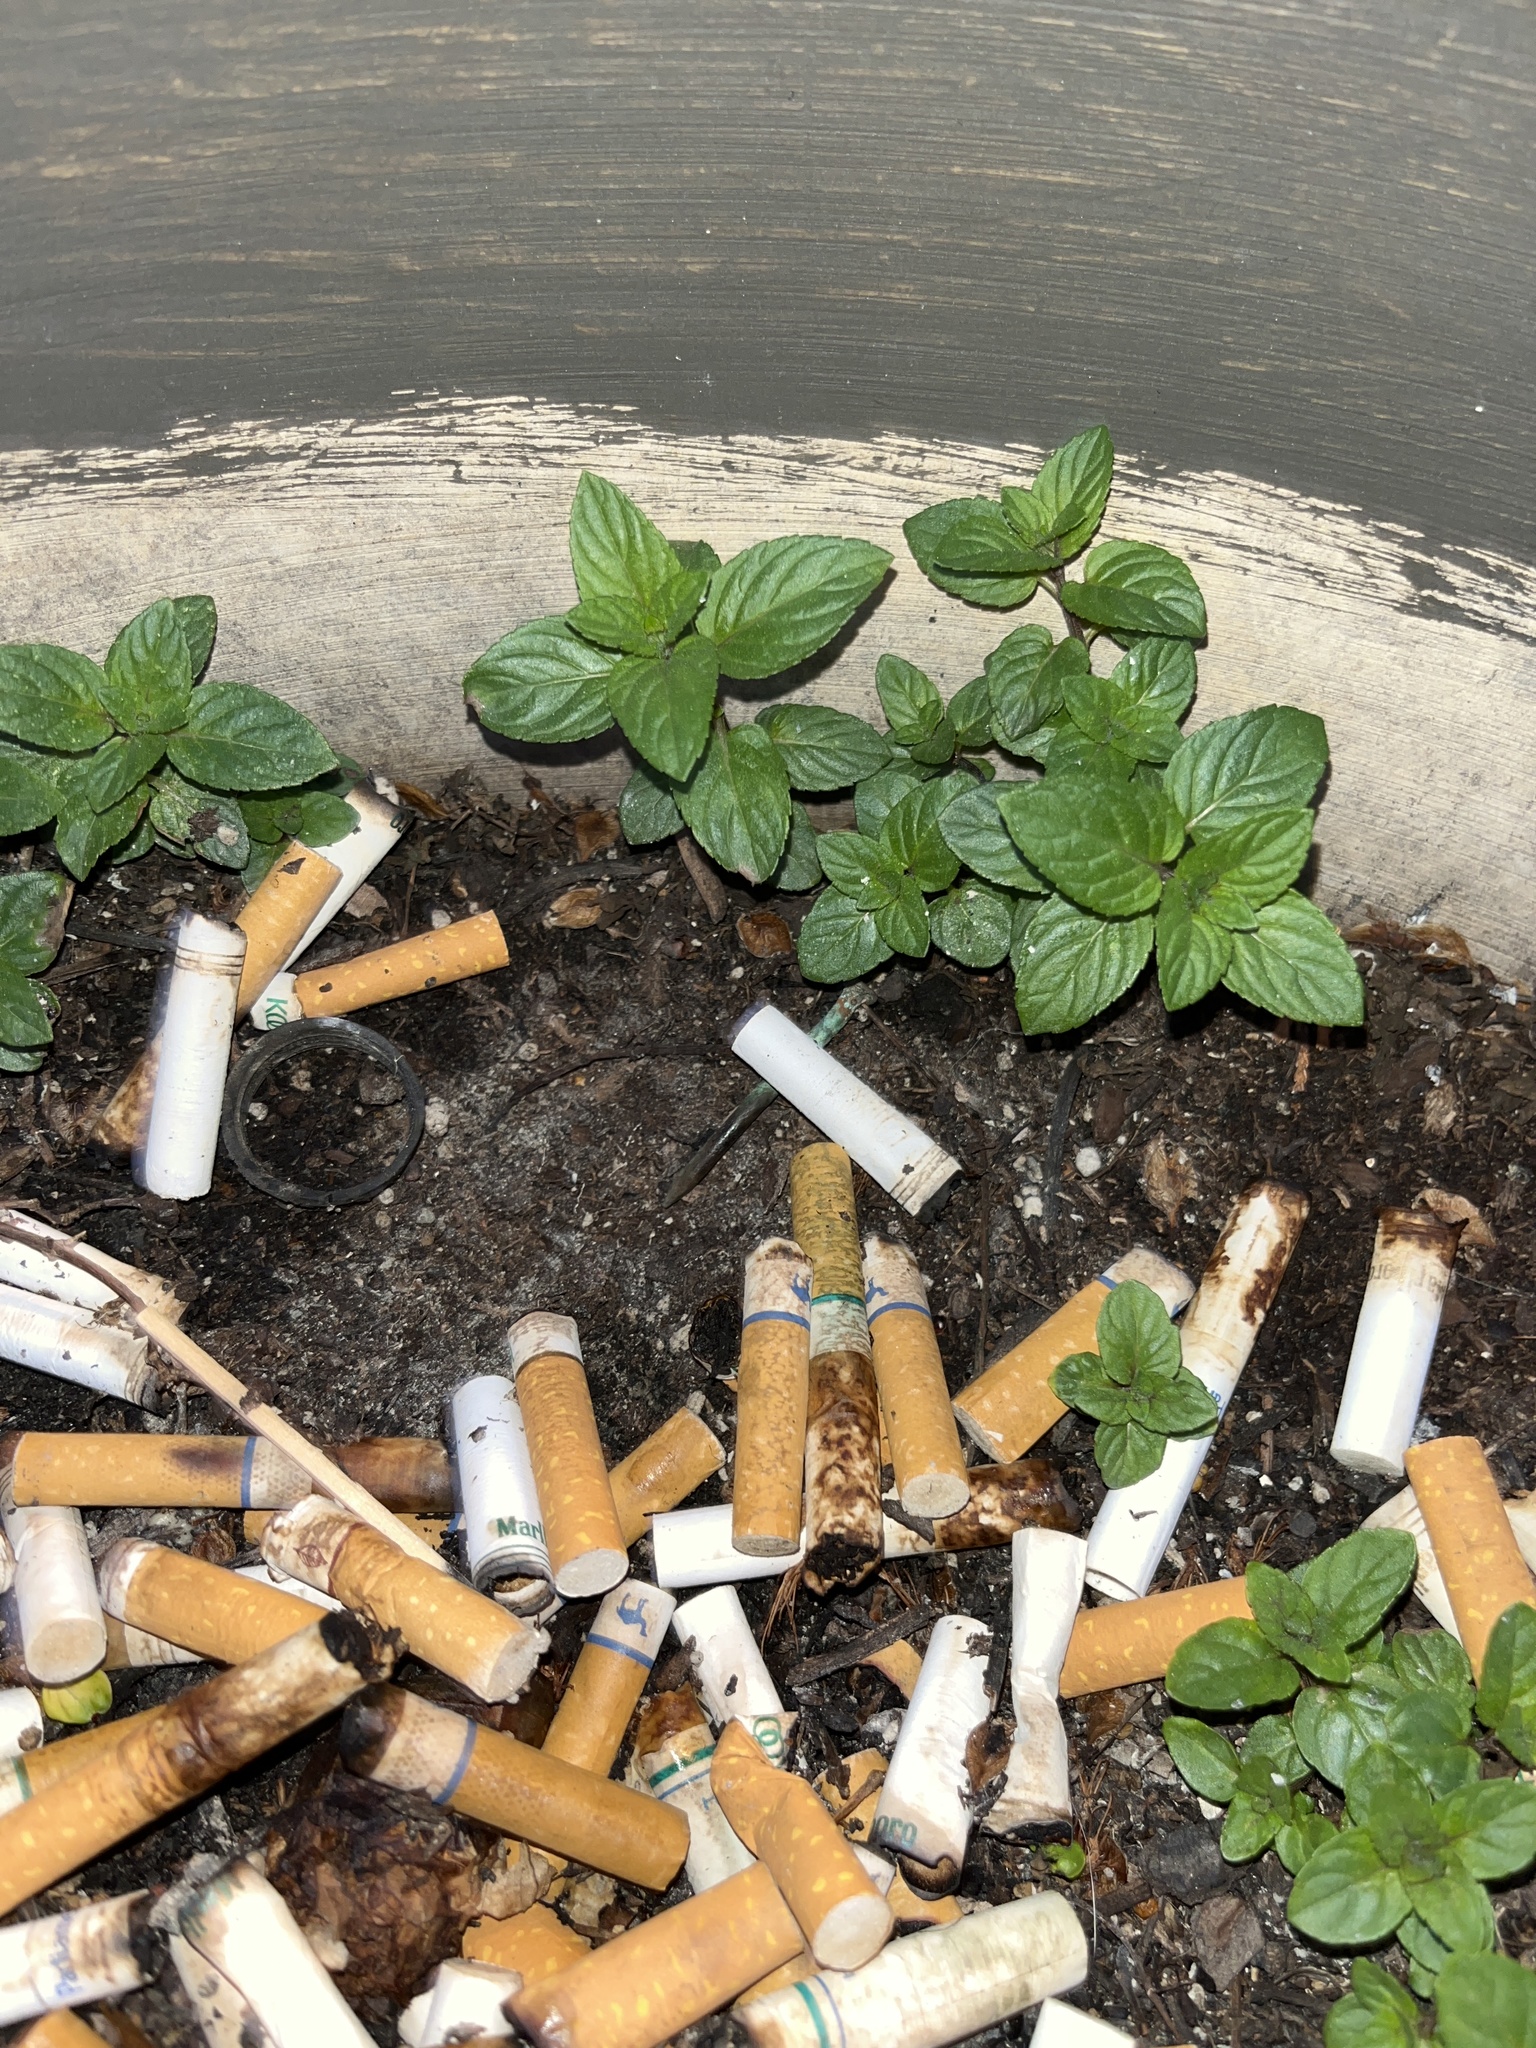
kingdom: Plantae
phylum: Tracheophyta
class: Magnoliopsida
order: Lamiales
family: Lamiaceae
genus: Mentha
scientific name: Mentha spicata
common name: Spearmint
